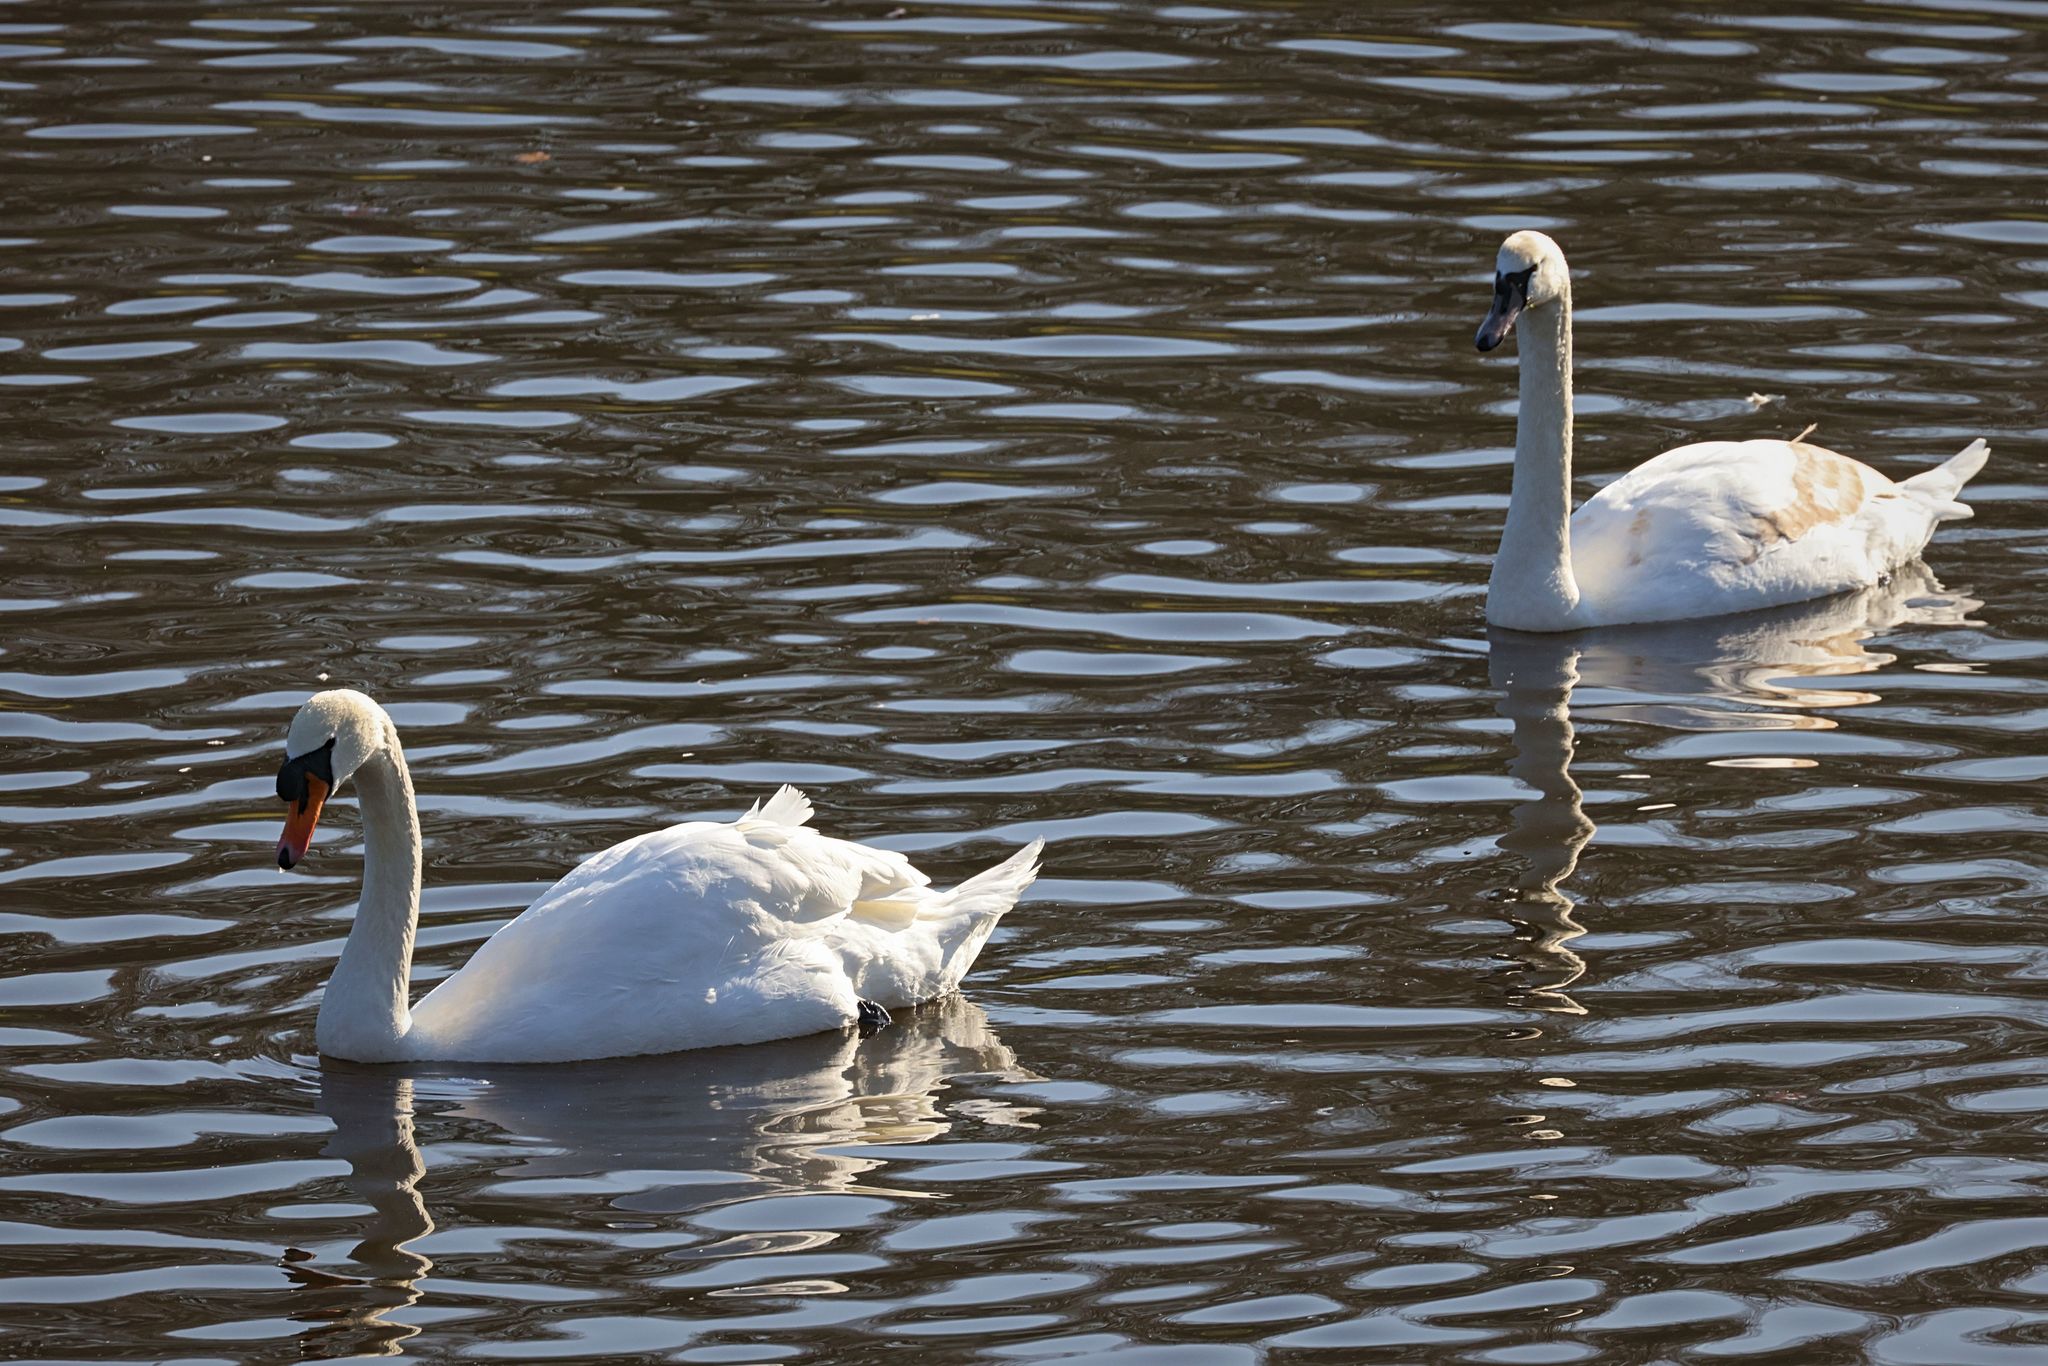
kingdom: Animalia
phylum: Chordata
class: Aves
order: Anseriformes
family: Anatidae
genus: Cygnus
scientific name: Cygnus olor
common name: Mute swan
